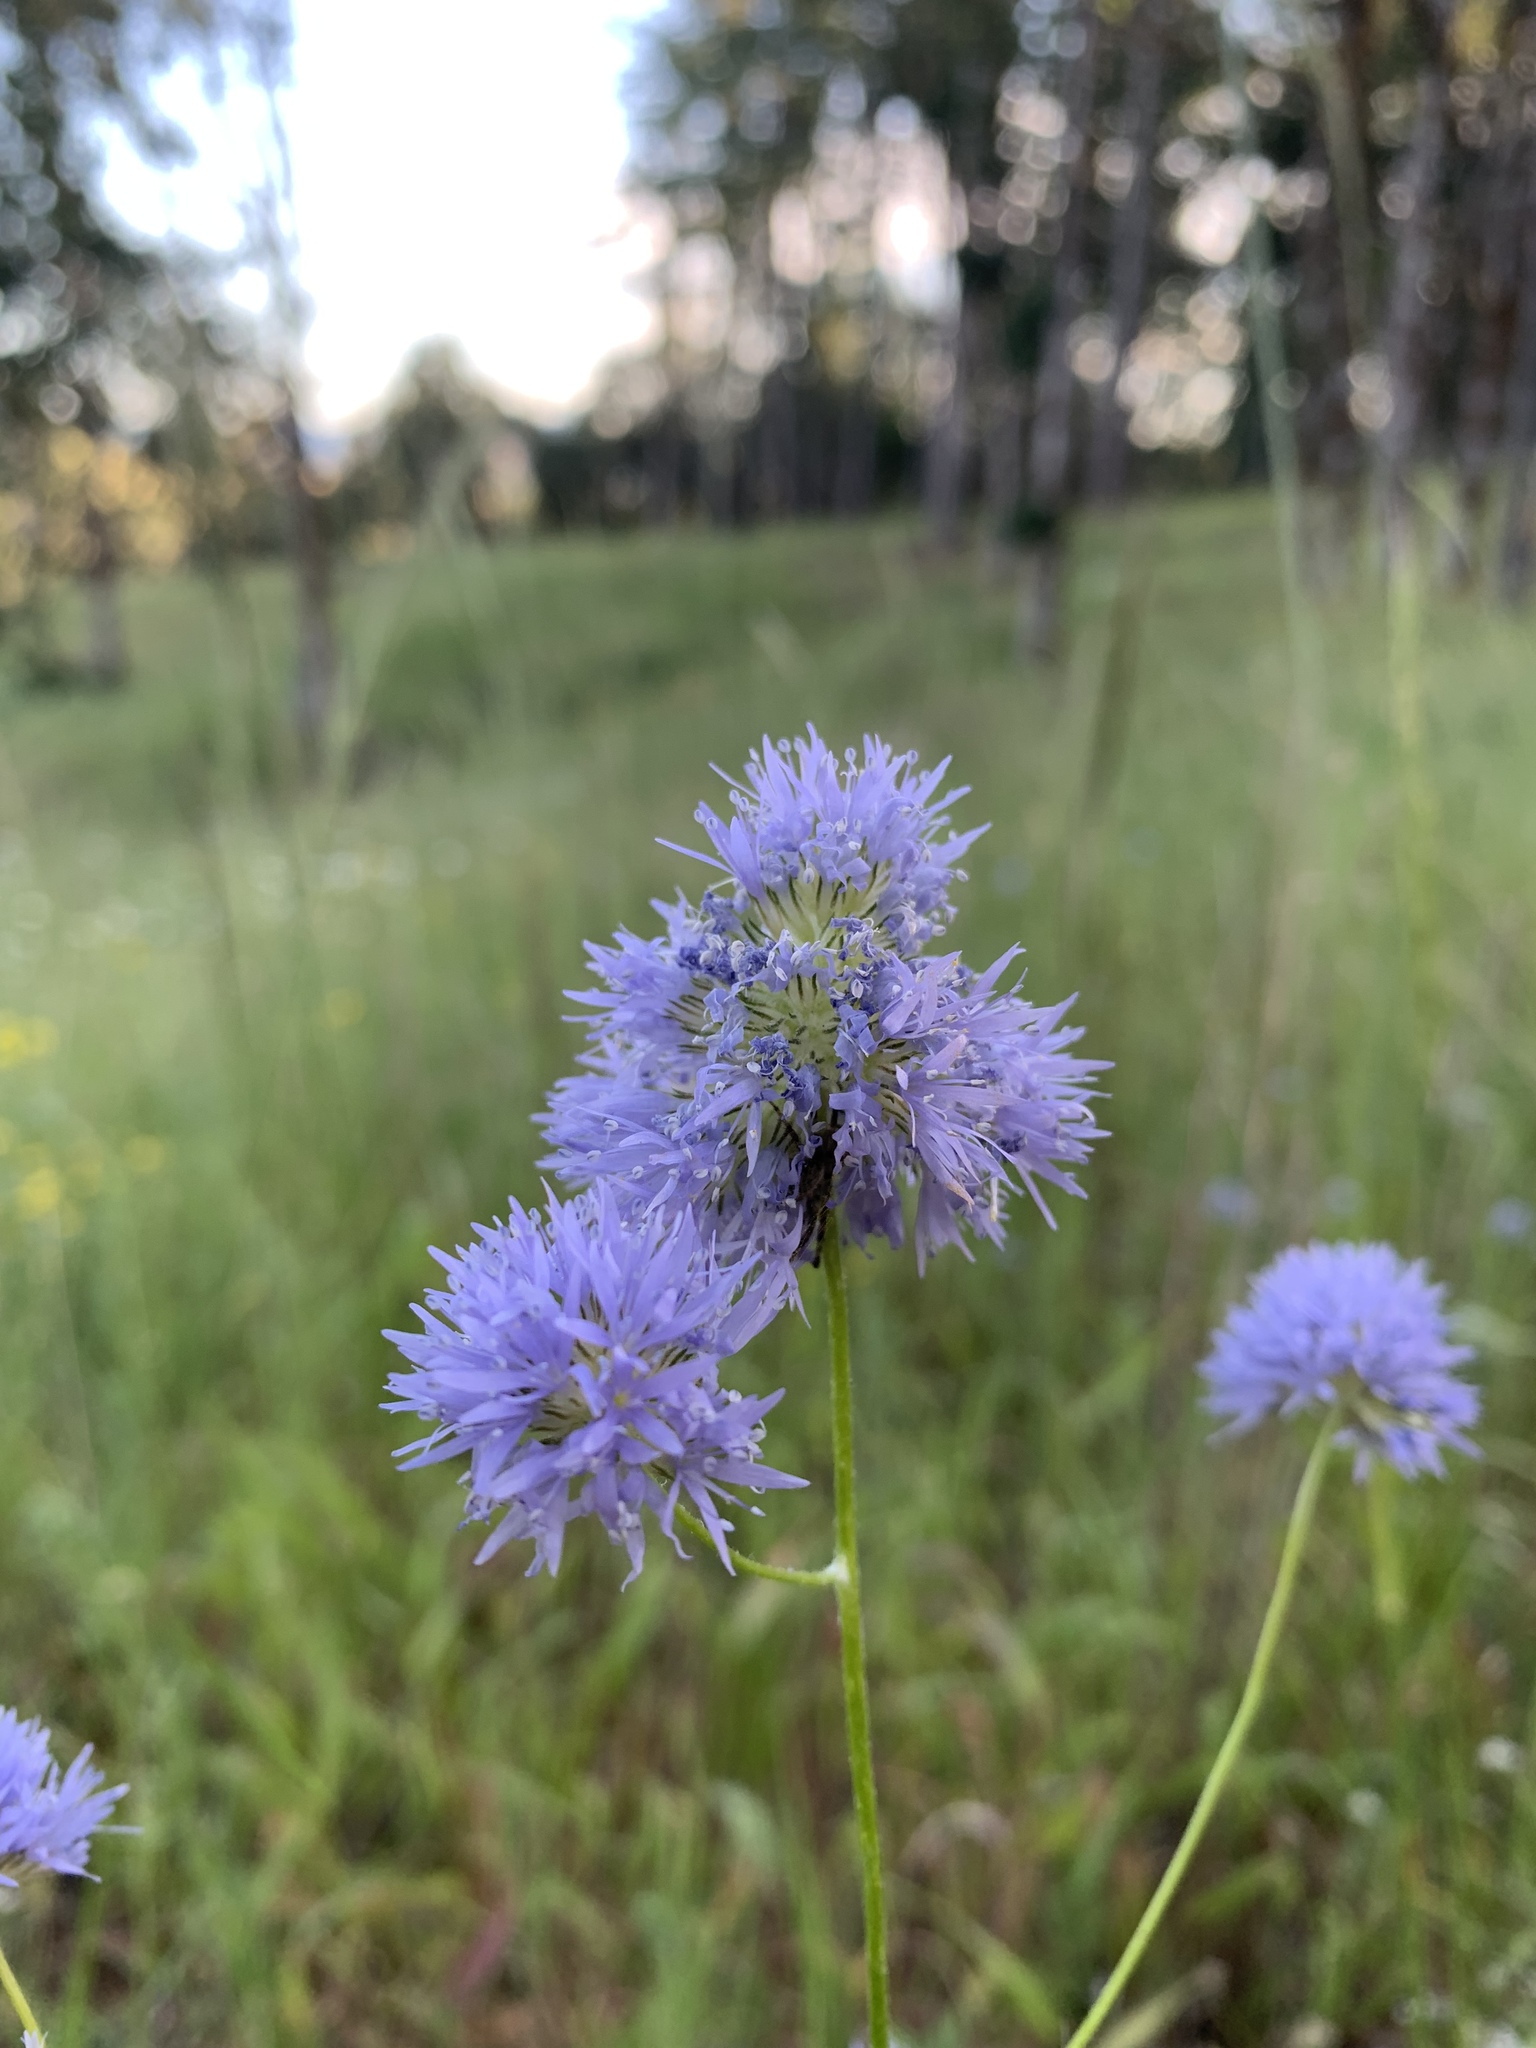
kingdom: Plantae
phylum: Tracheophyta
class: Magnoliopsida
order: Ericales
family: Polemoniaceae
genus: Gilia
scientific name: Gilia capitata
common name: Bluehead gilia
